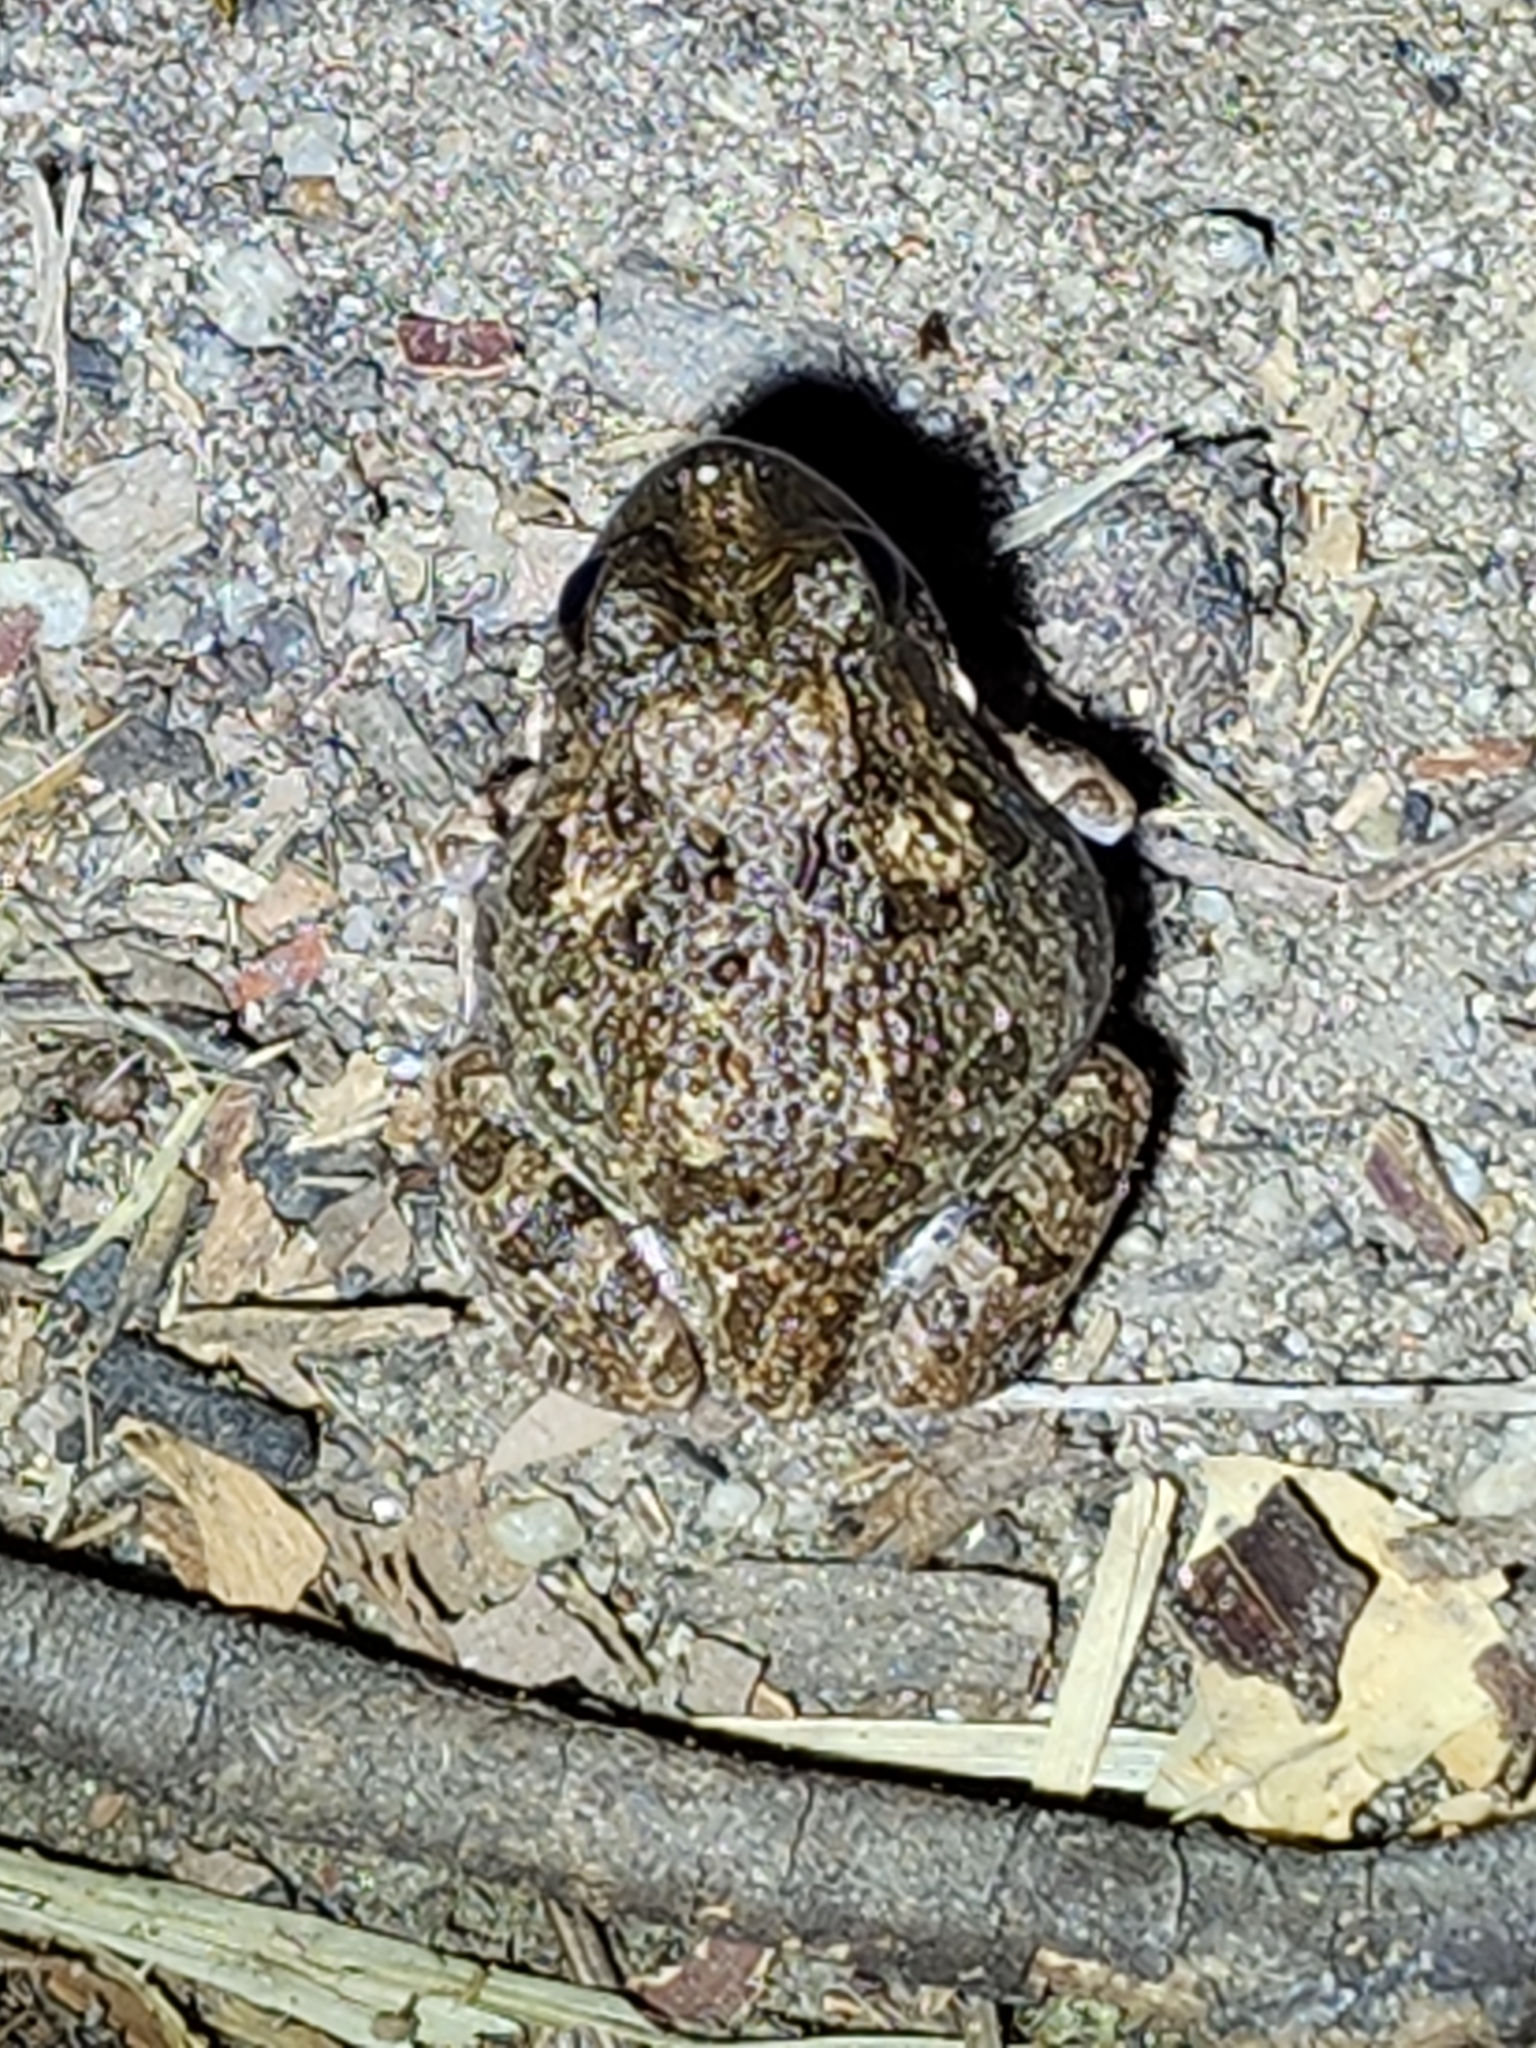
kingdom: Animalia
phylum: Chordata
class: Amphibia
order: Anura
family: Limnodynastidae
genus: Platyplectrum
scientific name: Platyplectrum ornatum
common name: Ornate burrowing frog
